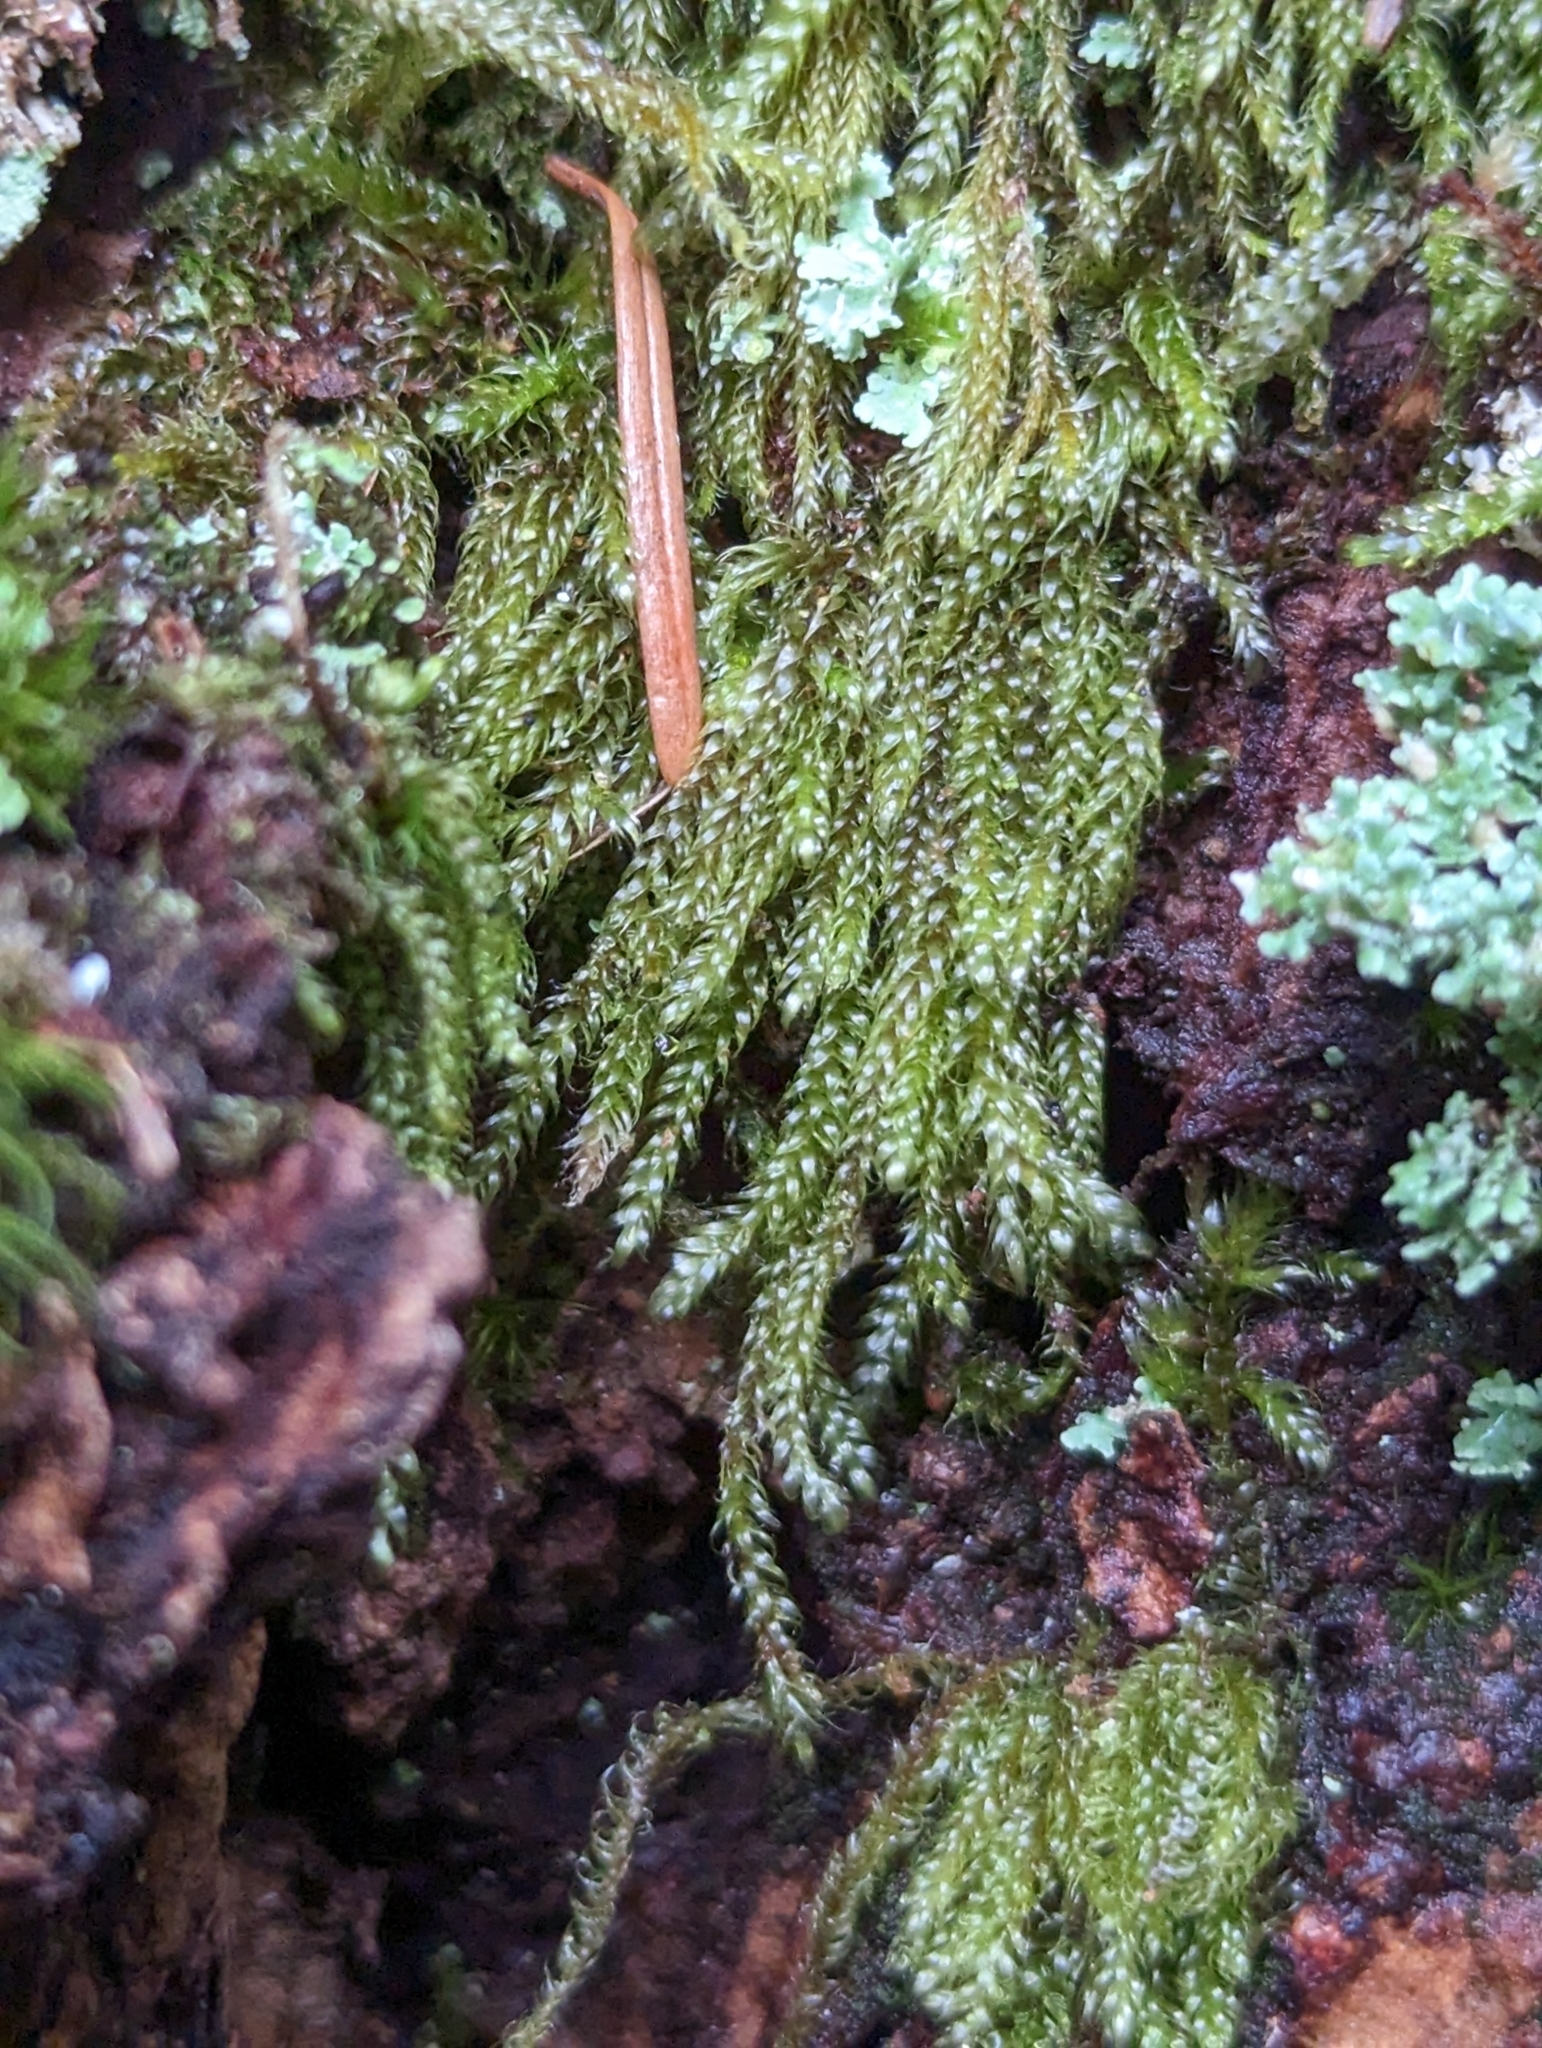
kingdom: Plantae
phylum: Bryophyta
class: Bryopsida
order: Hypnales
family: Pylaisiadelphaceae
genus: Trochophyllohypnum
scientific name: Trochophyllohypnum circinale
